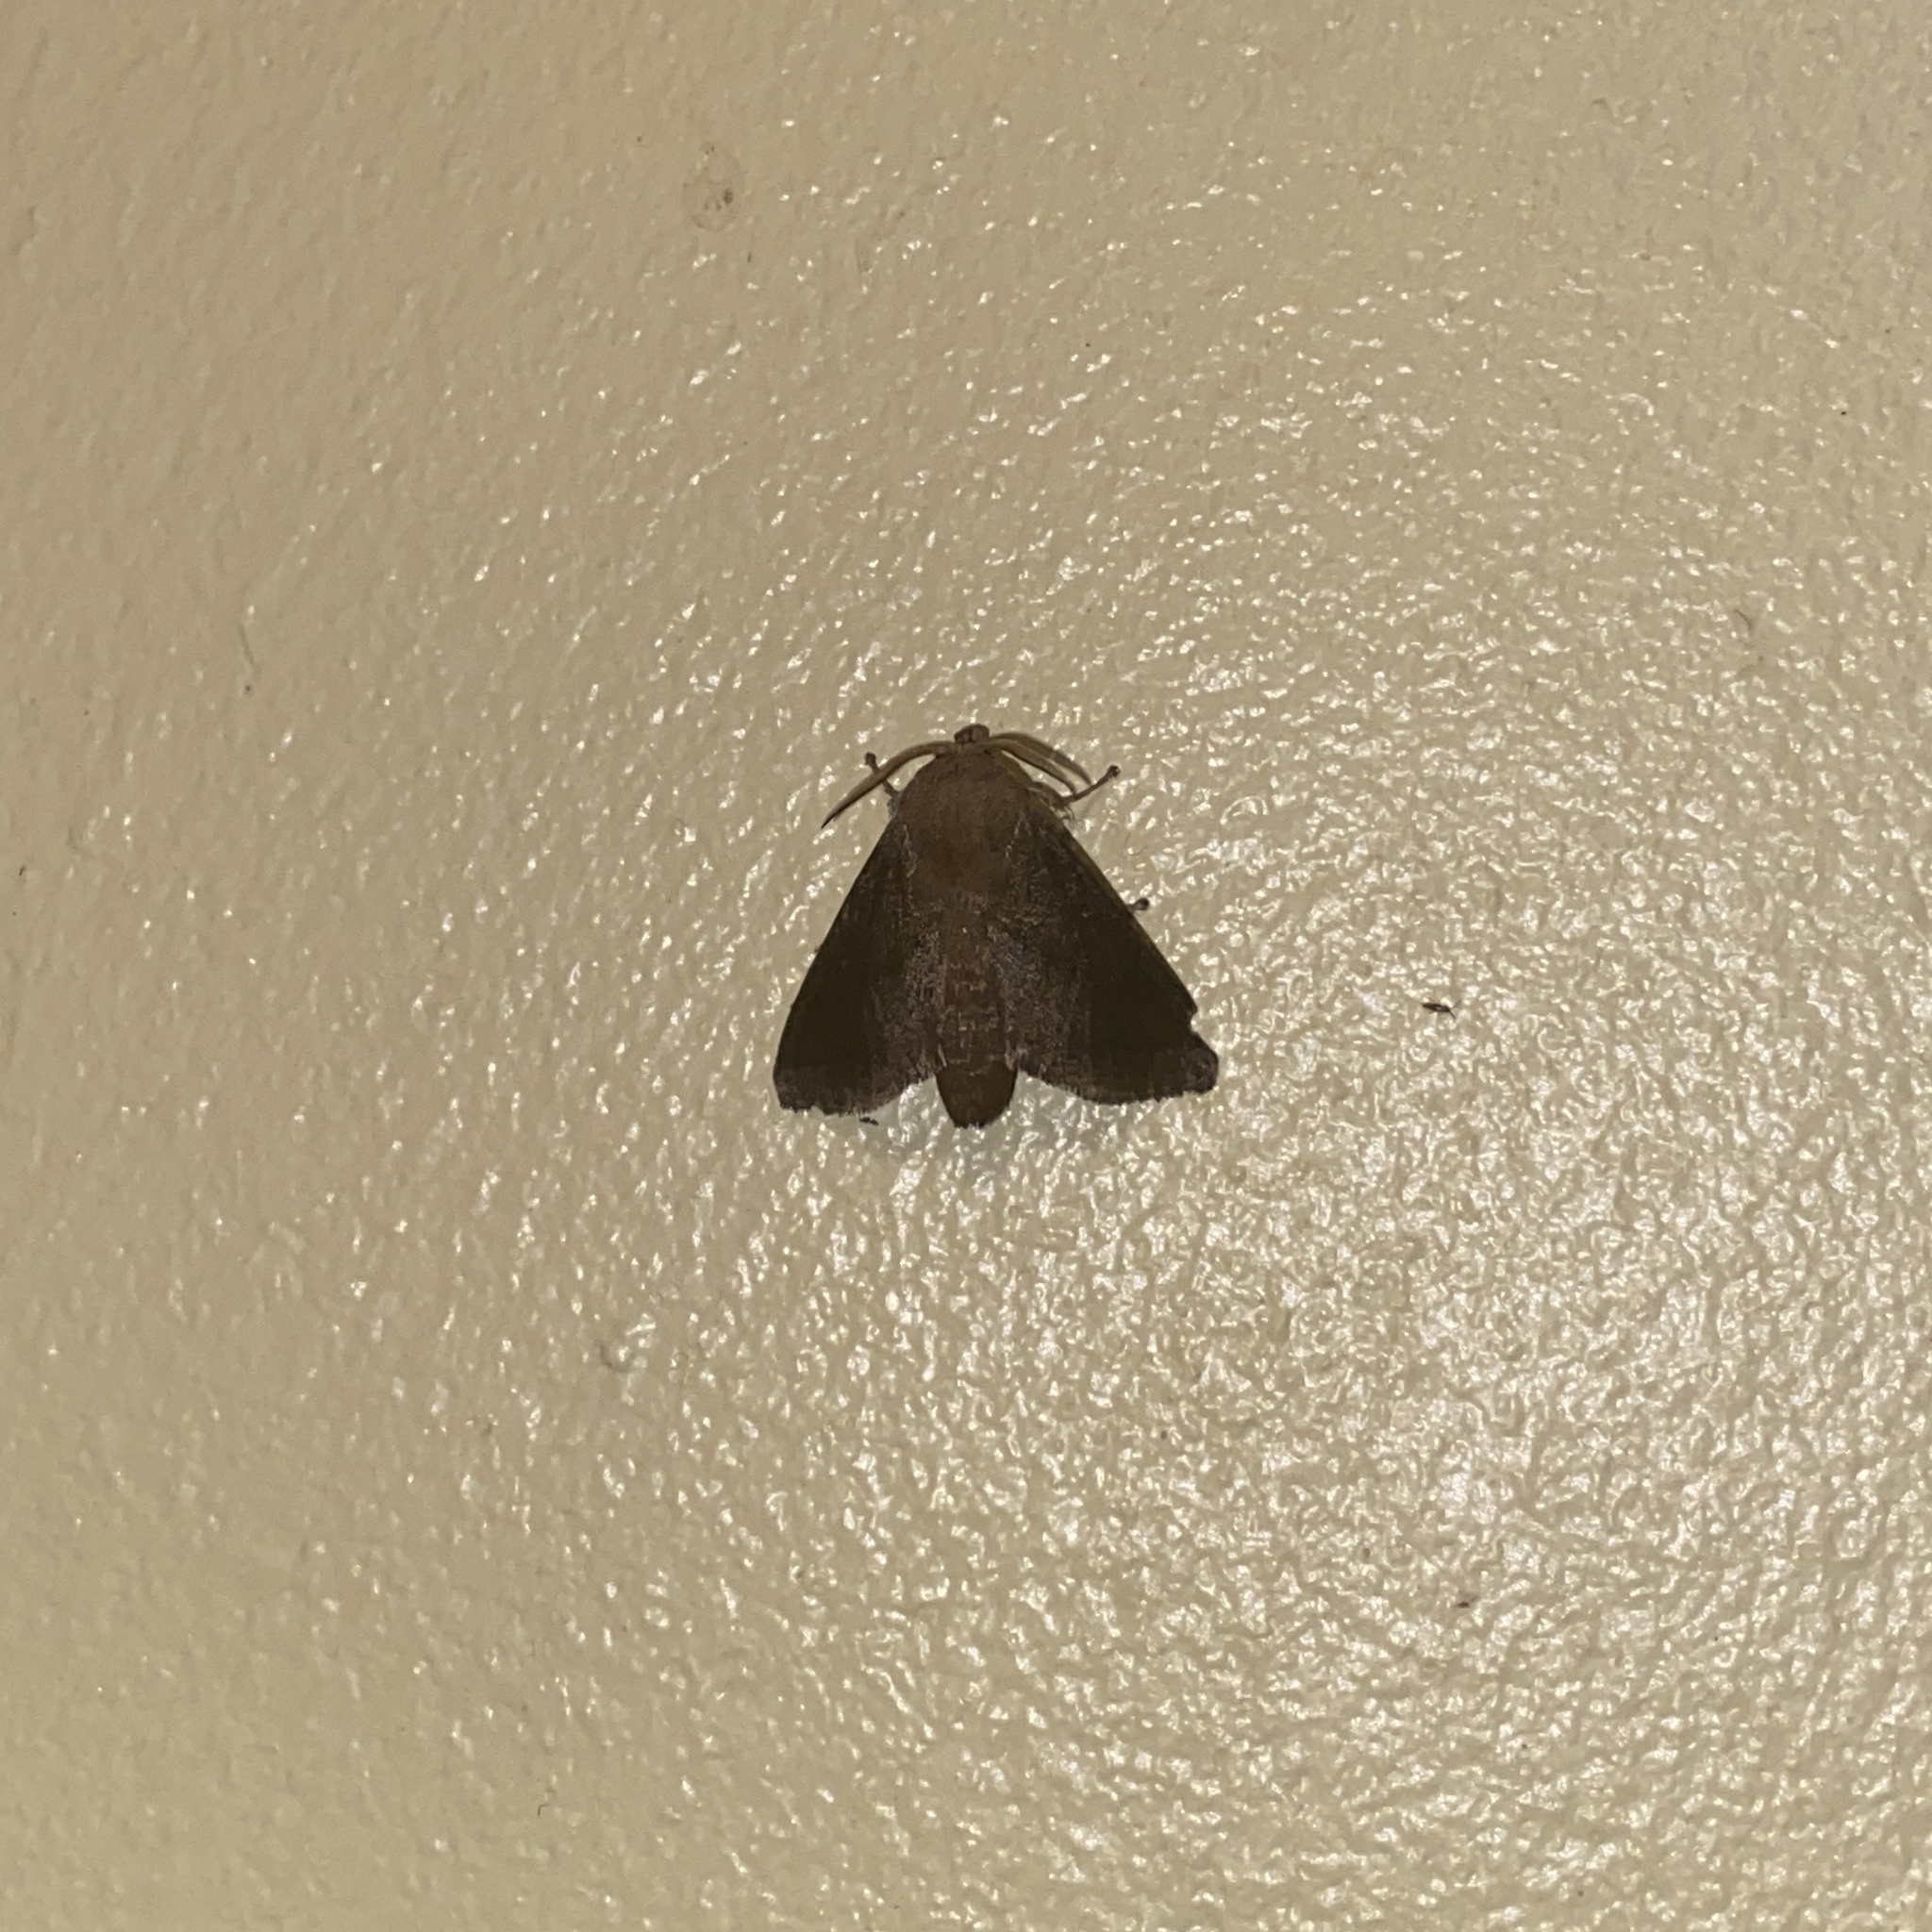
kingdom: Animalia
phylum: Arthropoda
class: Insecta
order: Lepidoptera
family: Limacodidae
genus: Natada
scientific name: Natada cochuba
